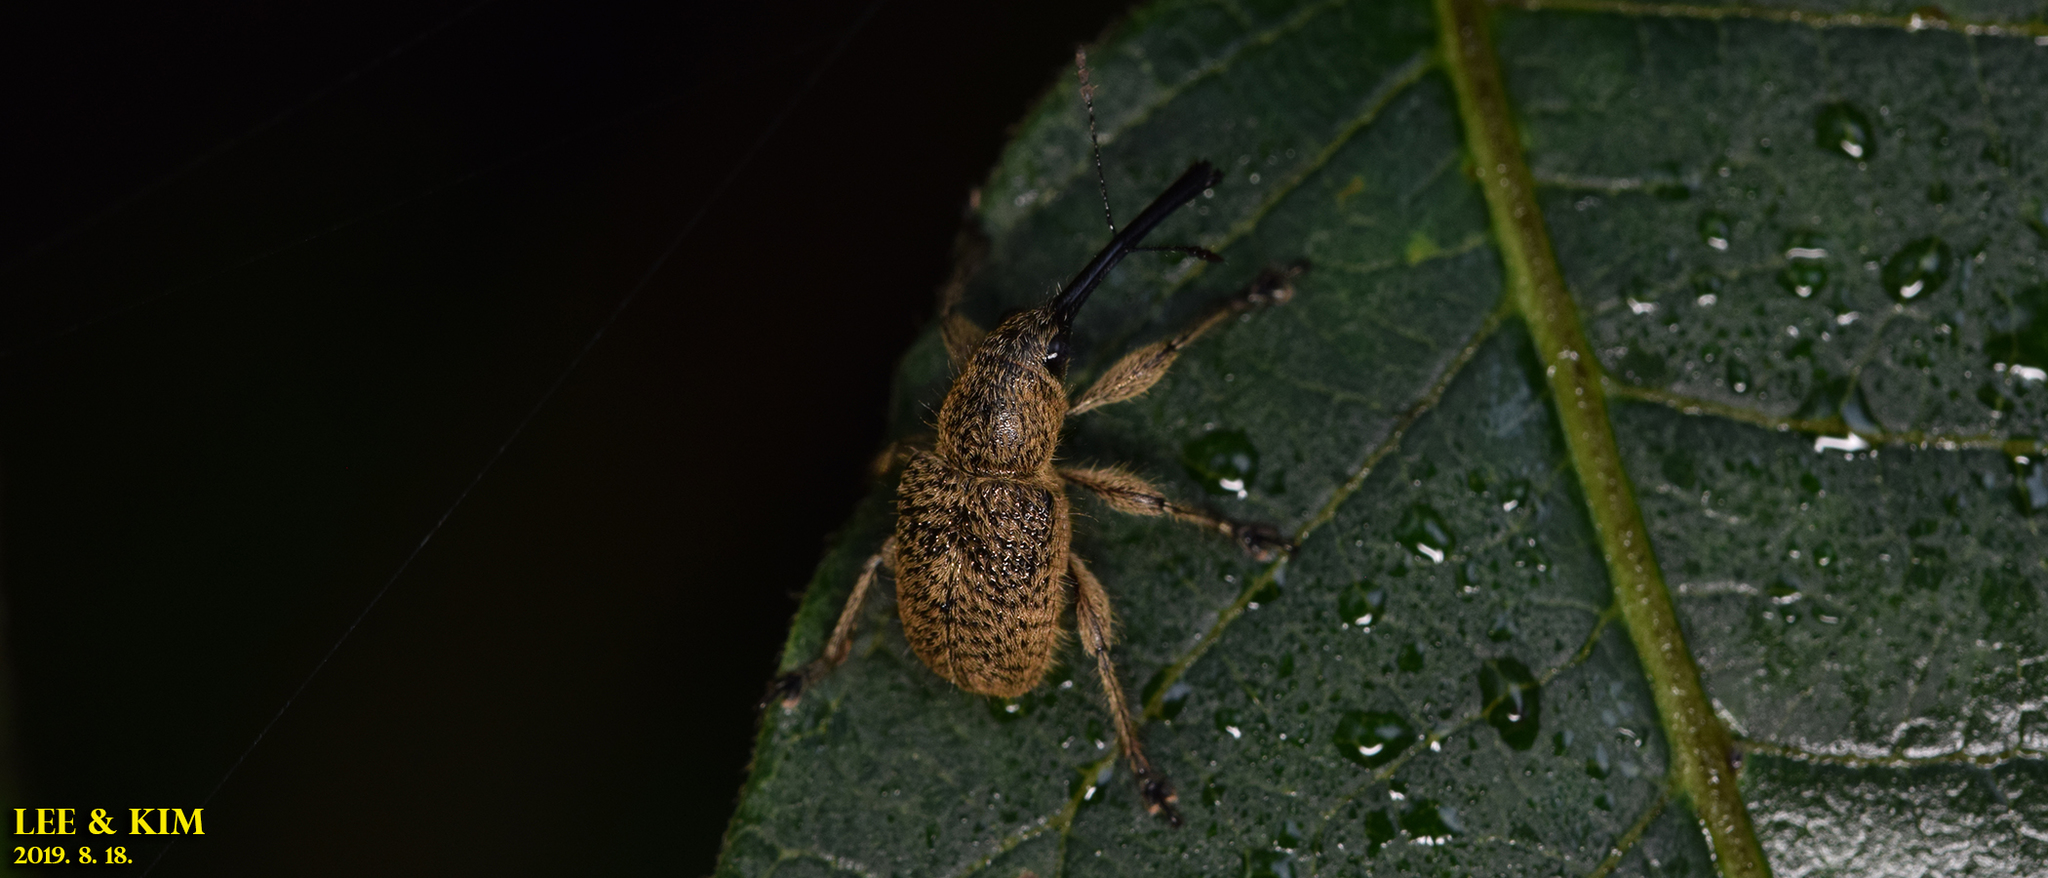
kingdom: Animalia
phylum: Arthropoda
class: Insecta
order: Coleoptera
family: Attelabidae
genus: Cyllorhynchites
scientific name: Cyllorhynchites ursulus
